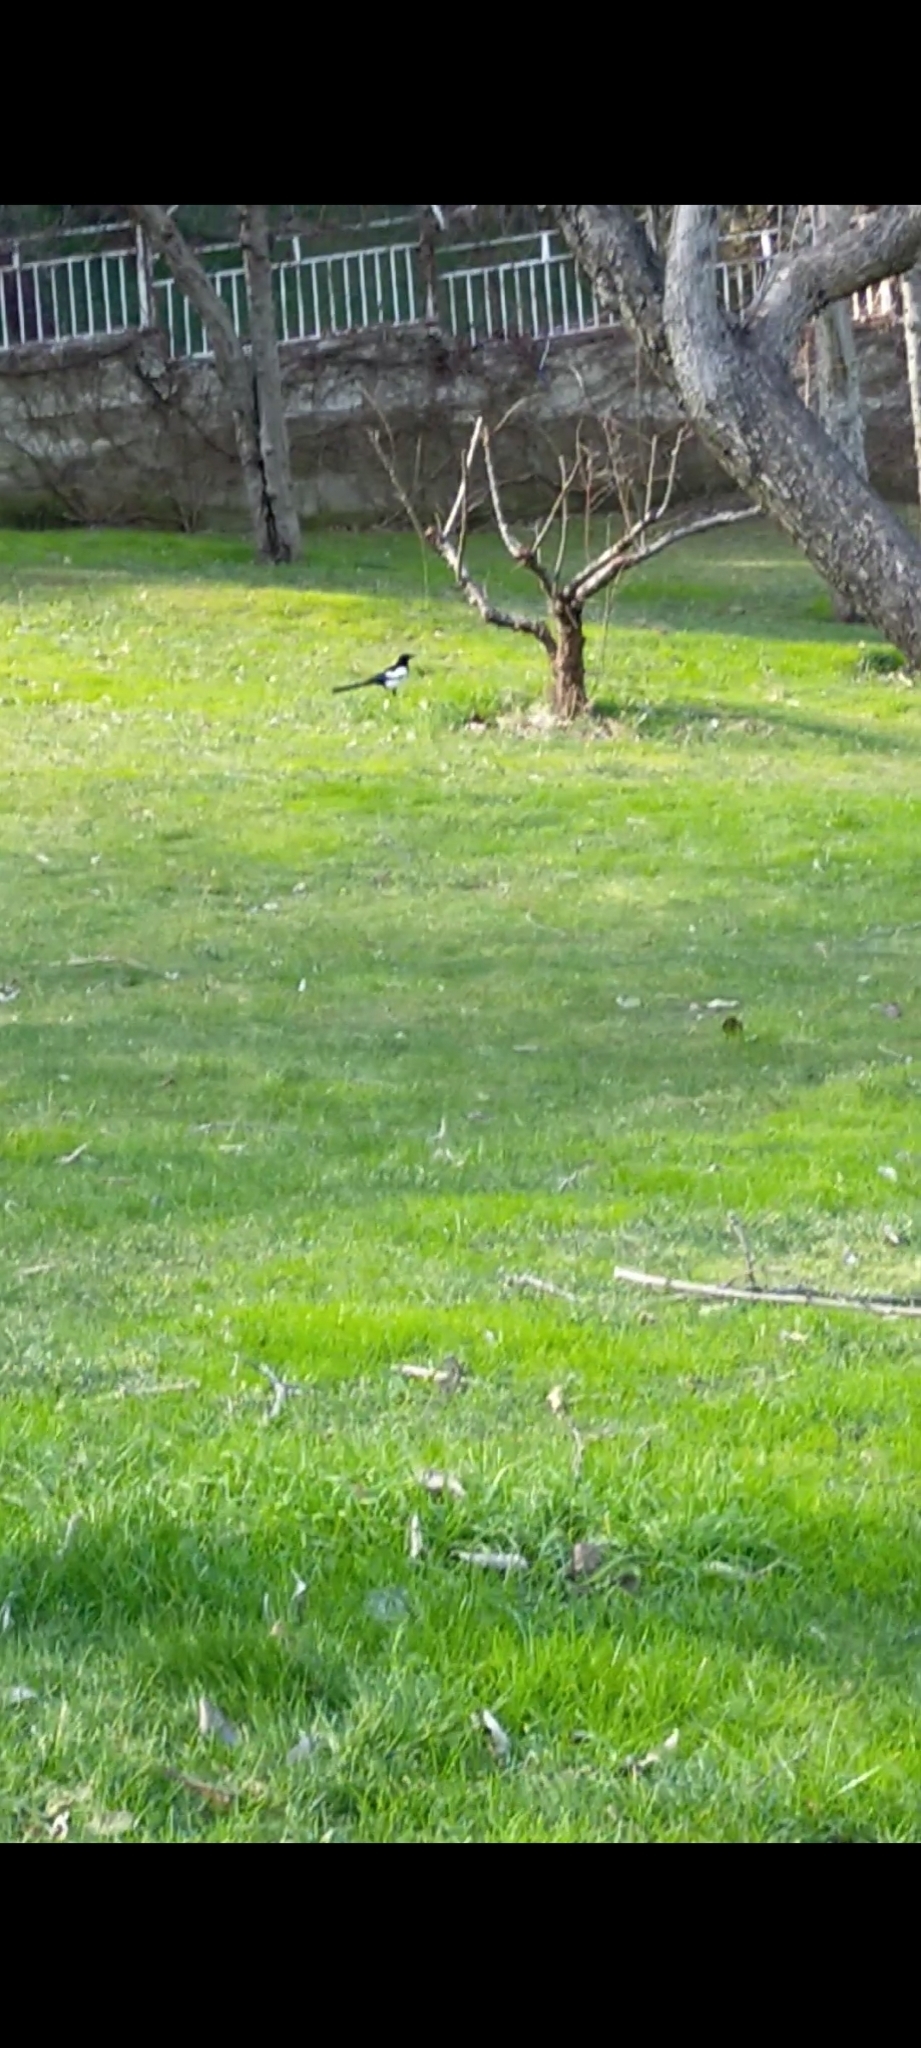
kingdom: Animalia
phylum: Chordata
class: Aves
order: Passeriformes
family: Corvidae
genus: Pica
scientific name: Pica pica
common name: Eurasian magpie
